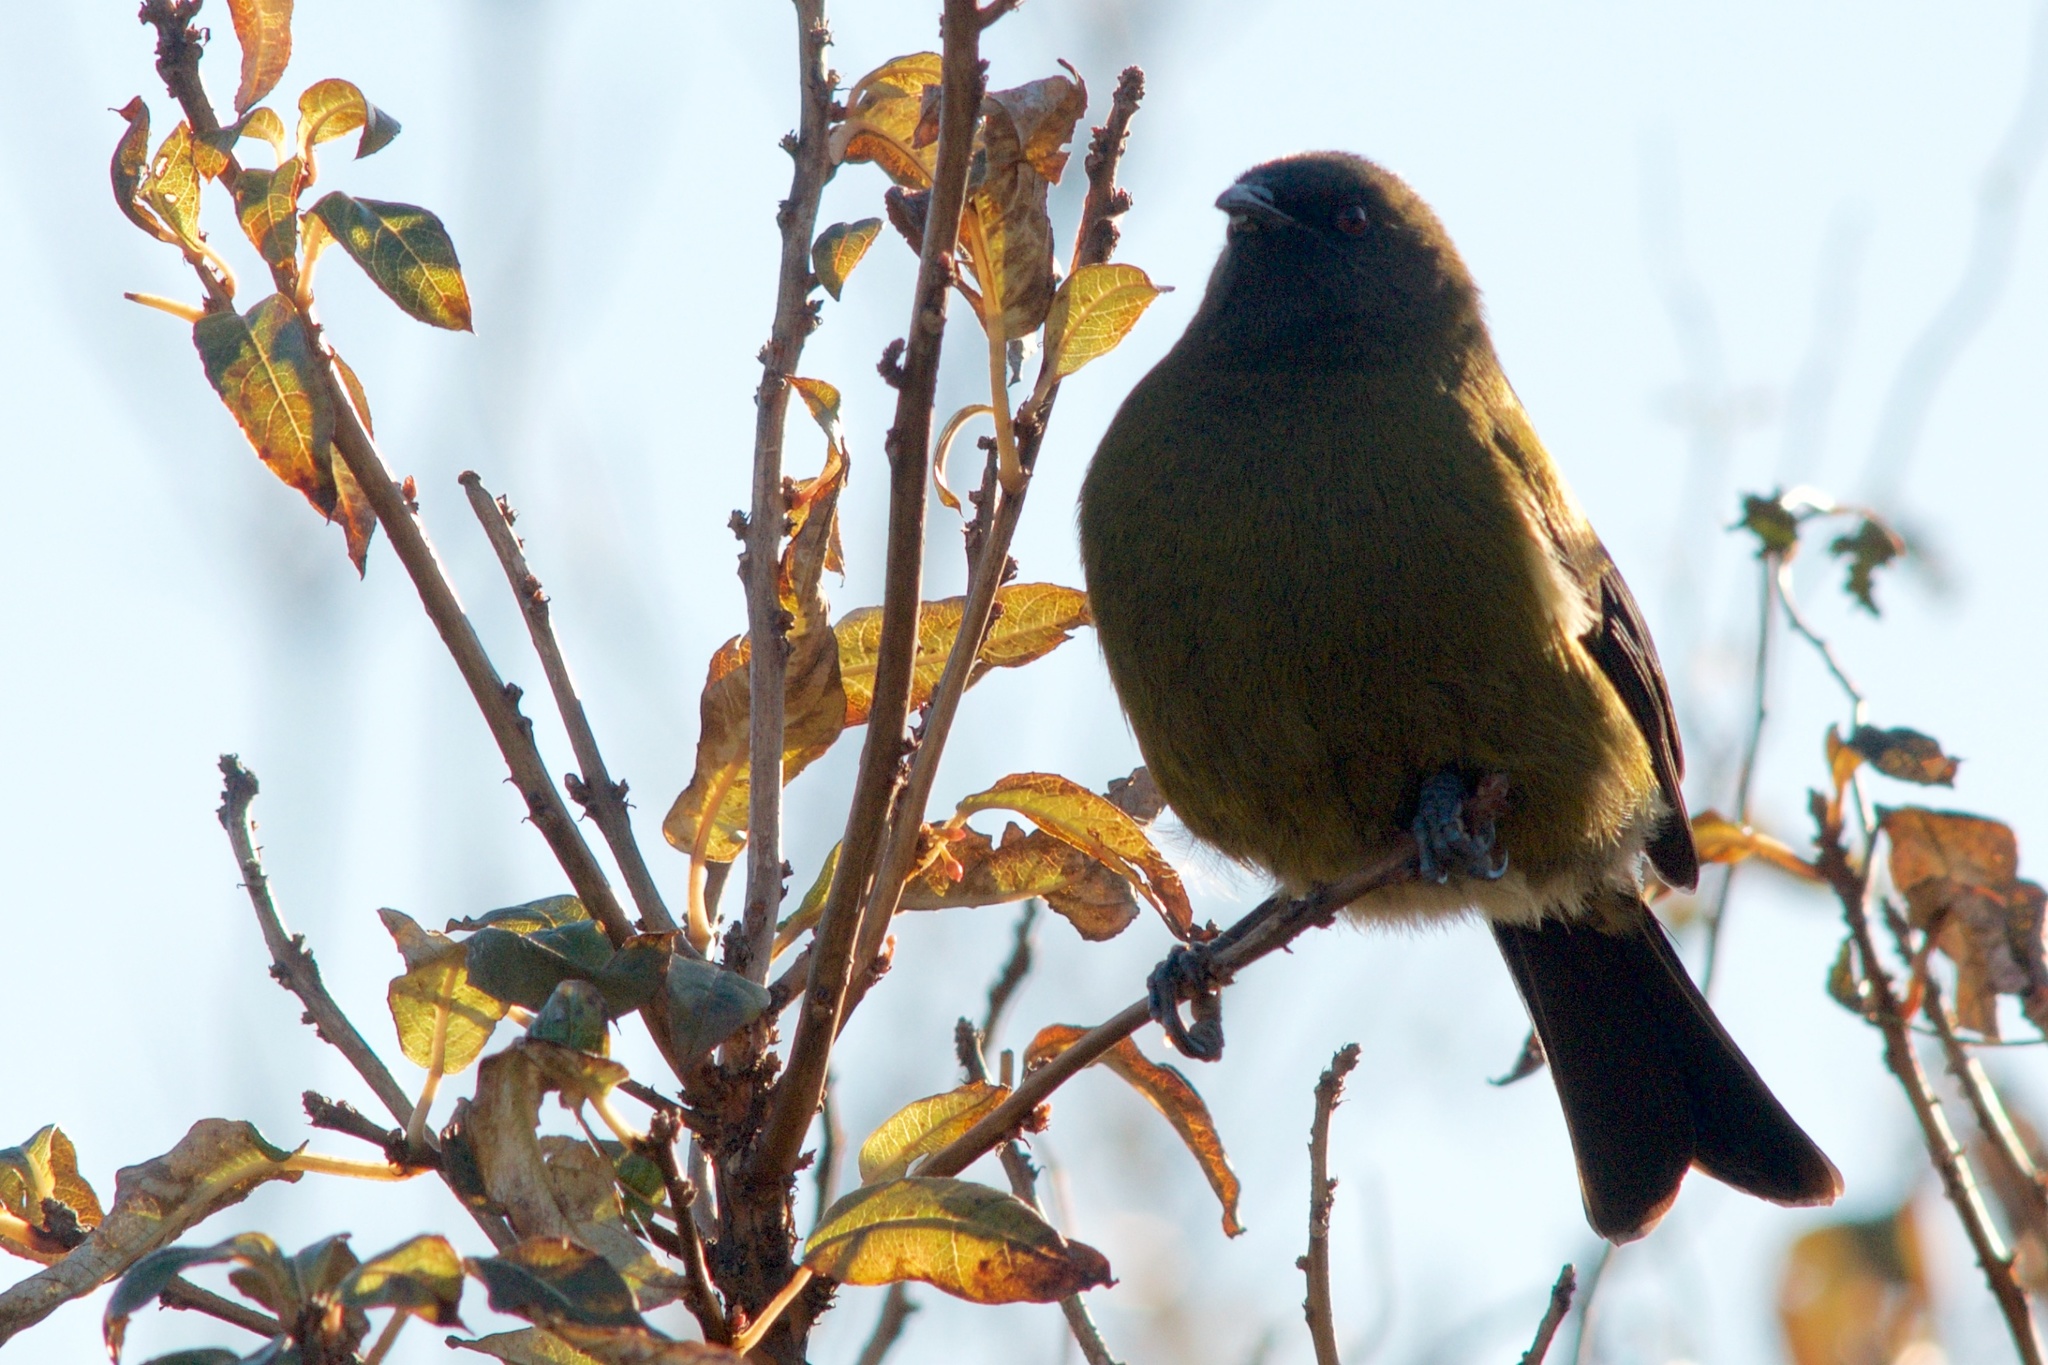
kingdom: Animalia
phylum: Chordata
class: Aves
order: Passeriformes
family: Meliphagidae
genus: Anthornis
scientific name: Anthornis melanura
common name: New zealand bellbird
